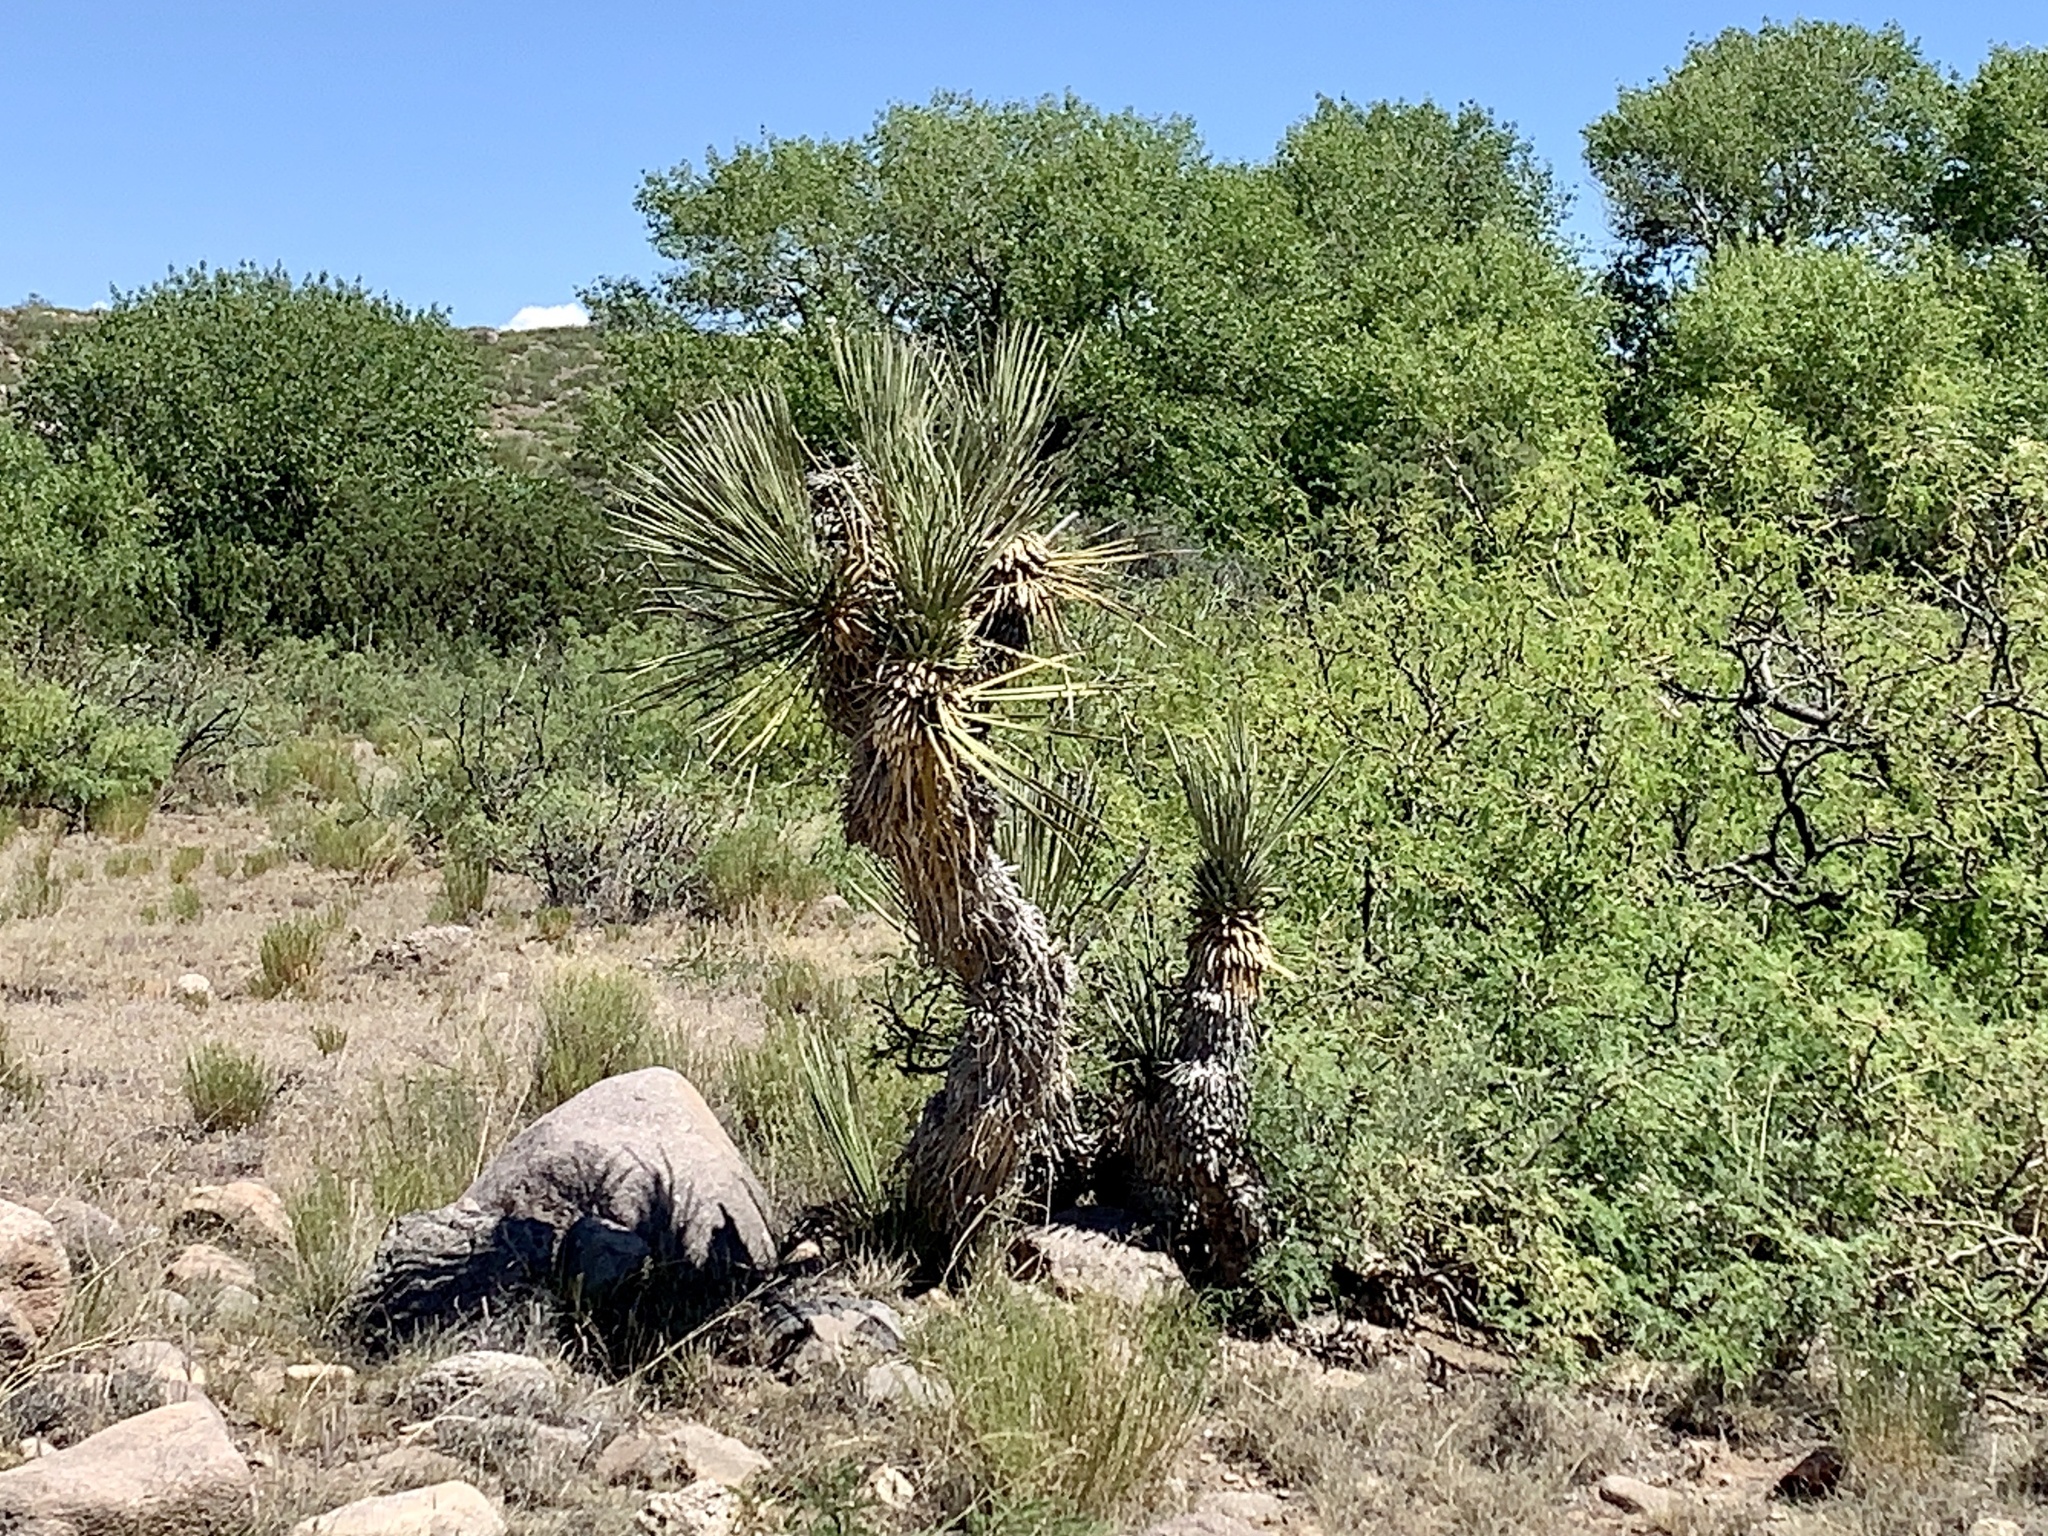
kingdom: Plantae
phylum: Tracheophyta
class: Liliopsida
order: Asparagales
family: Asparagaceae
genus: Yucca
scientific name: Yucca elata
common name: Palmella
